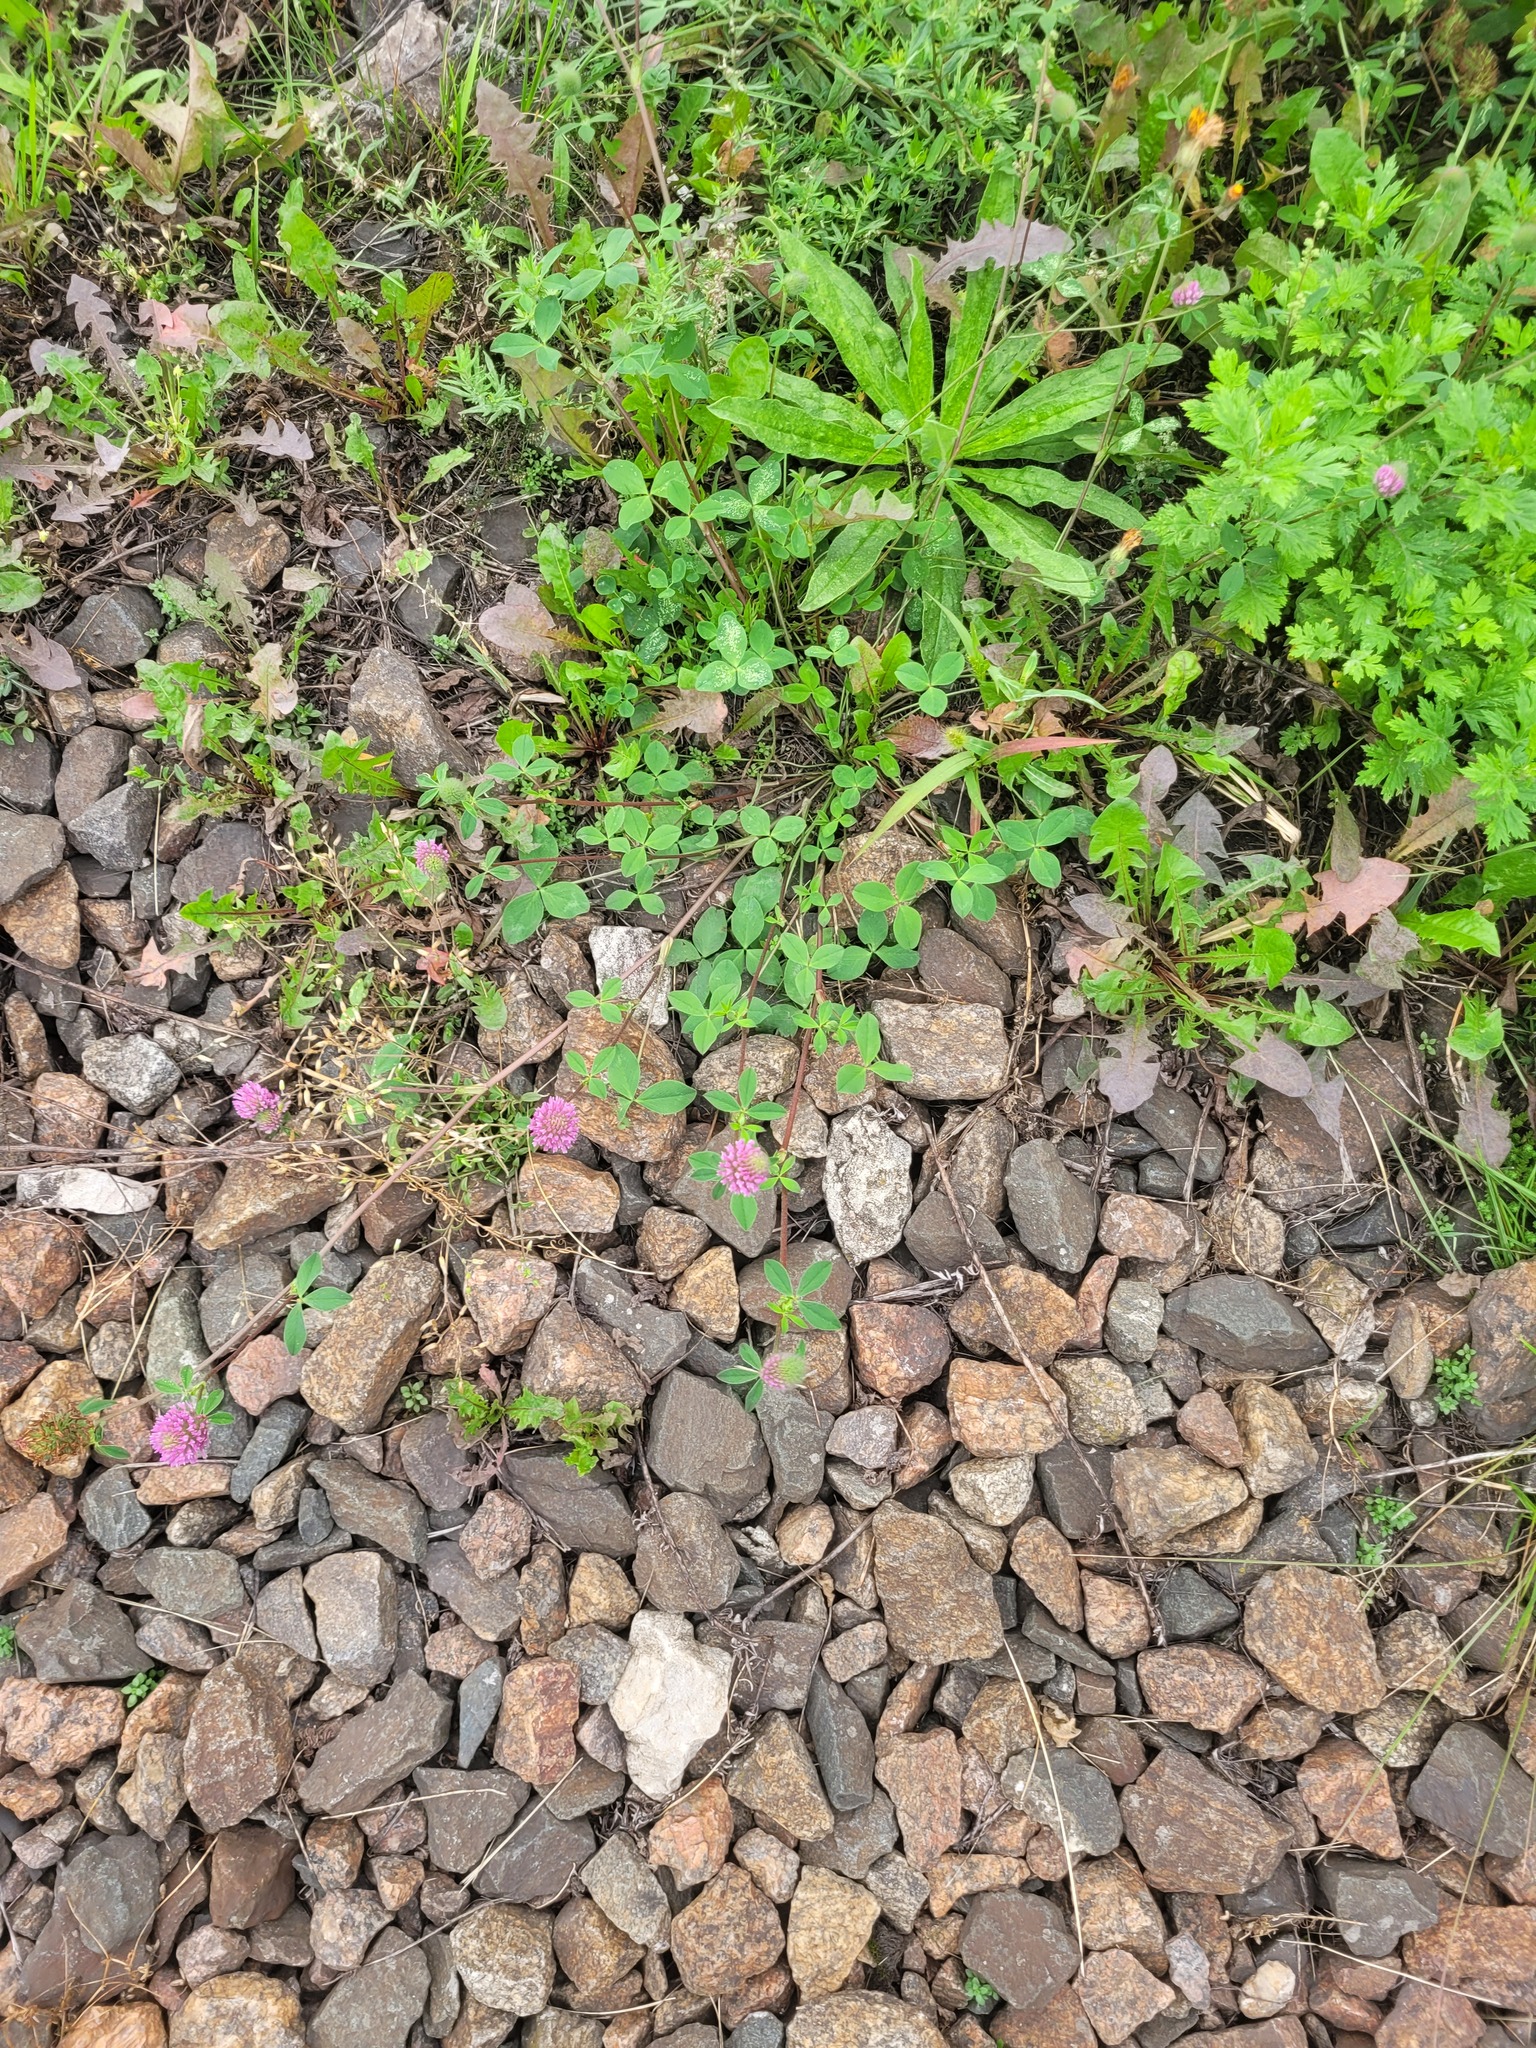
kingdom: Plantae
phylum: Tracheophyta
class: Magnoliopsida
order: Fabales
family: Fabaceae
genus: Trifolium
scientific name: Trifolium pratense
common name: Red clover
